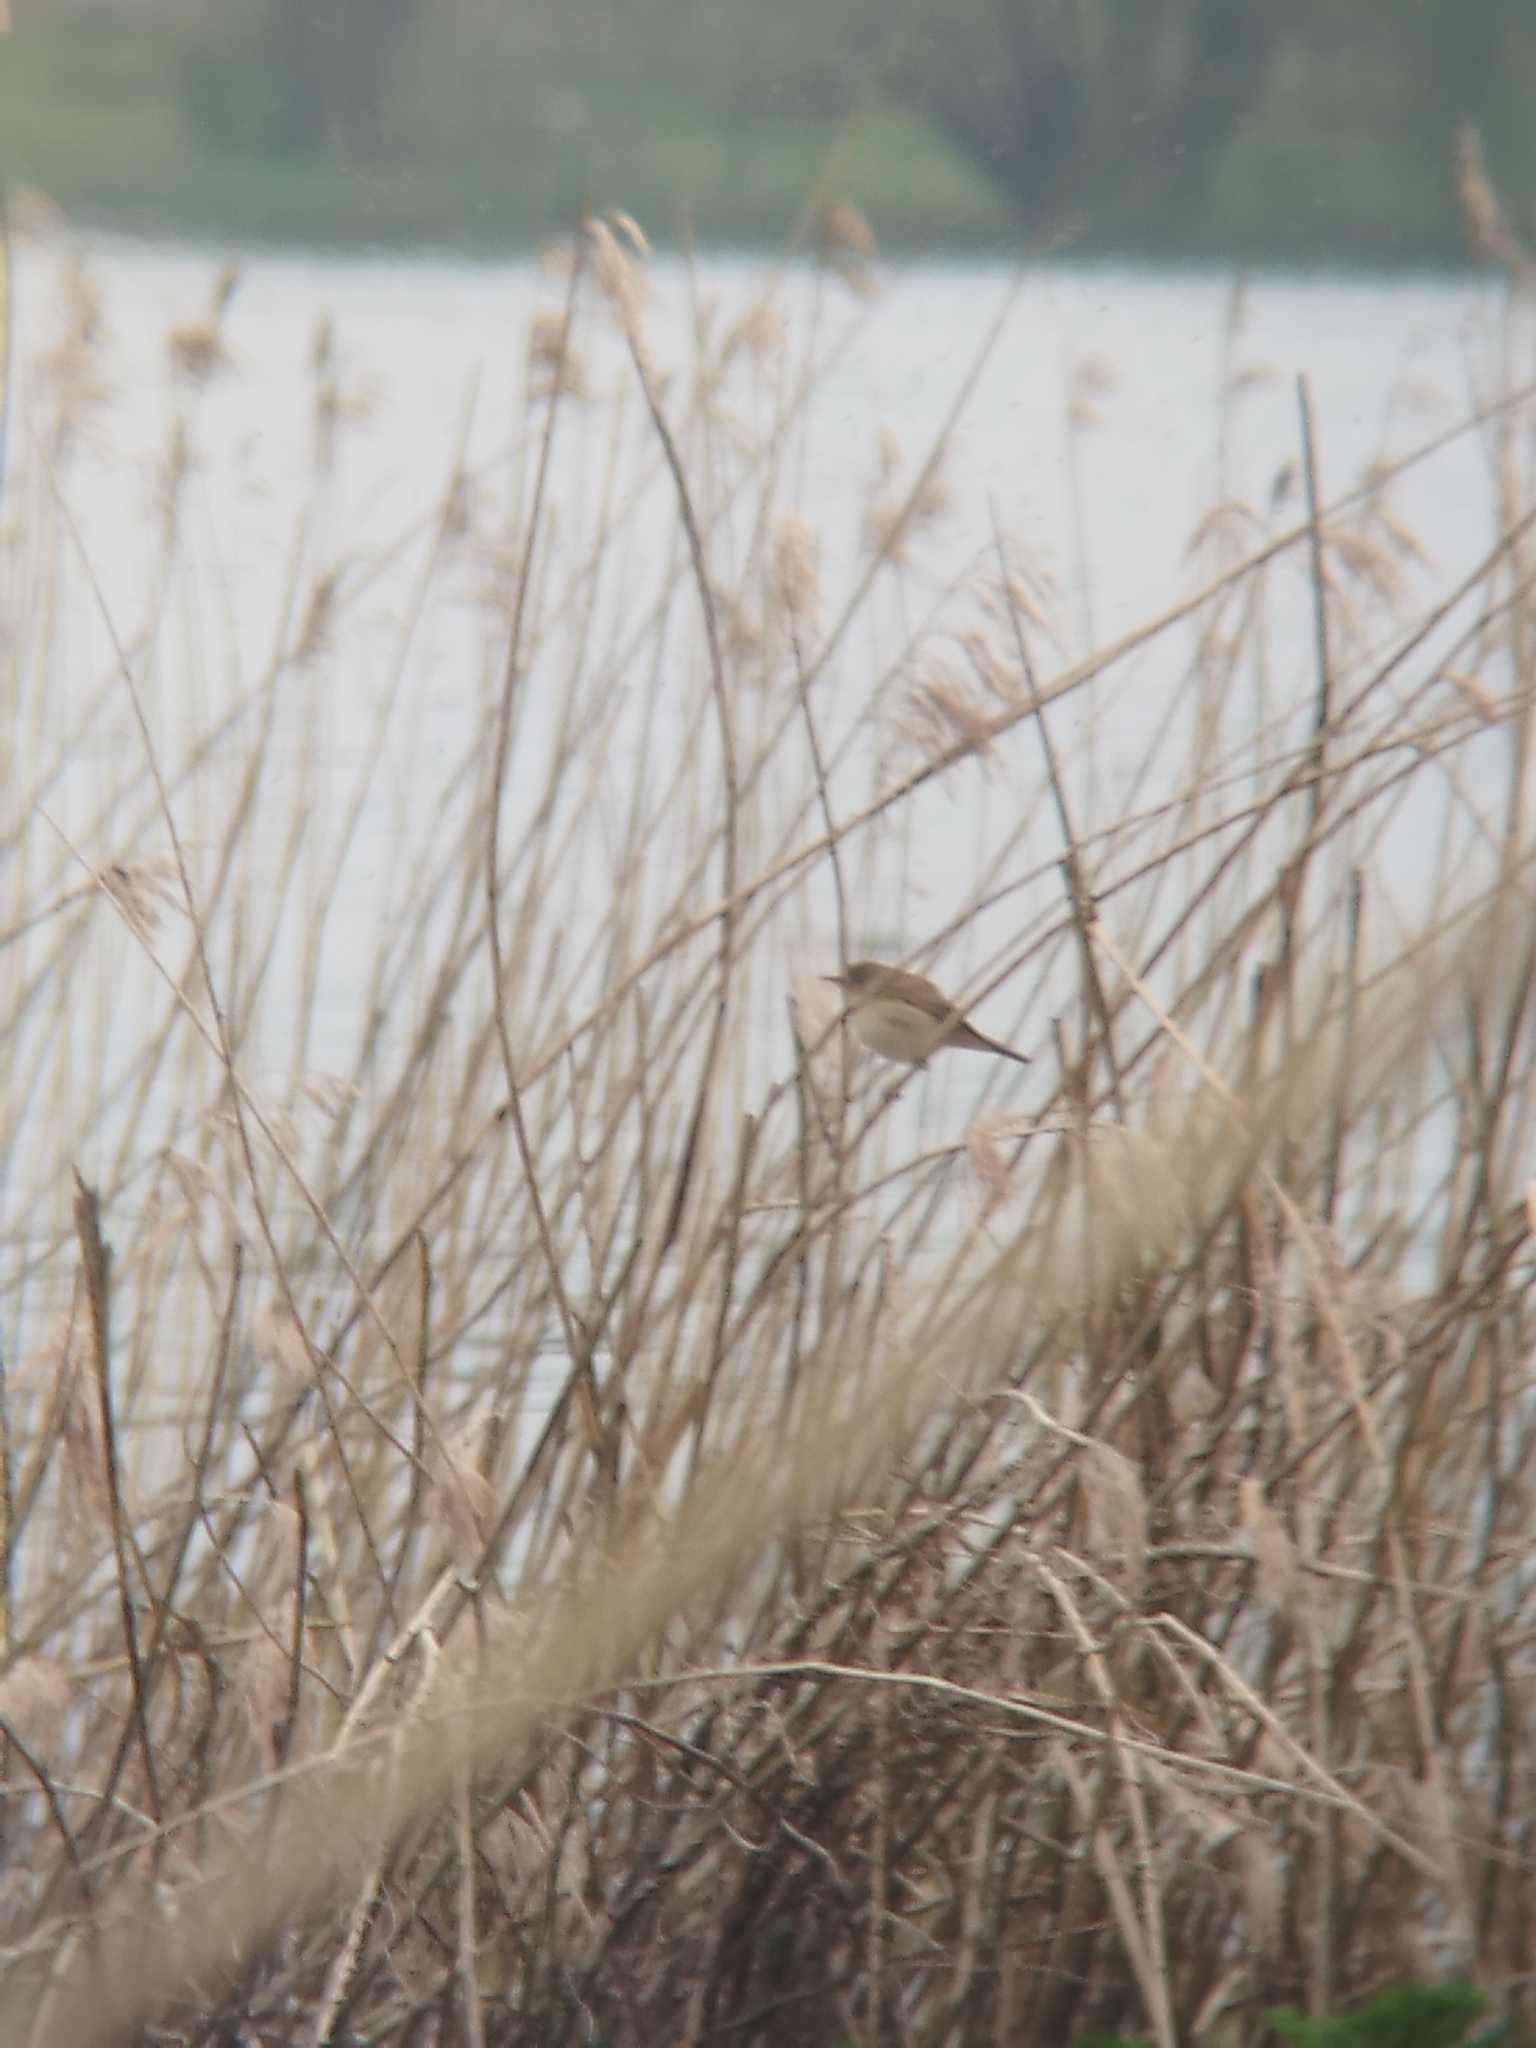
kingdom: Animalia
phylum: Chordata
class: Aves
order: Passeriformes
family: Sylviidae
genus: Sylvia
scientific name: Sylvia communis
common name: Common whitethroat
